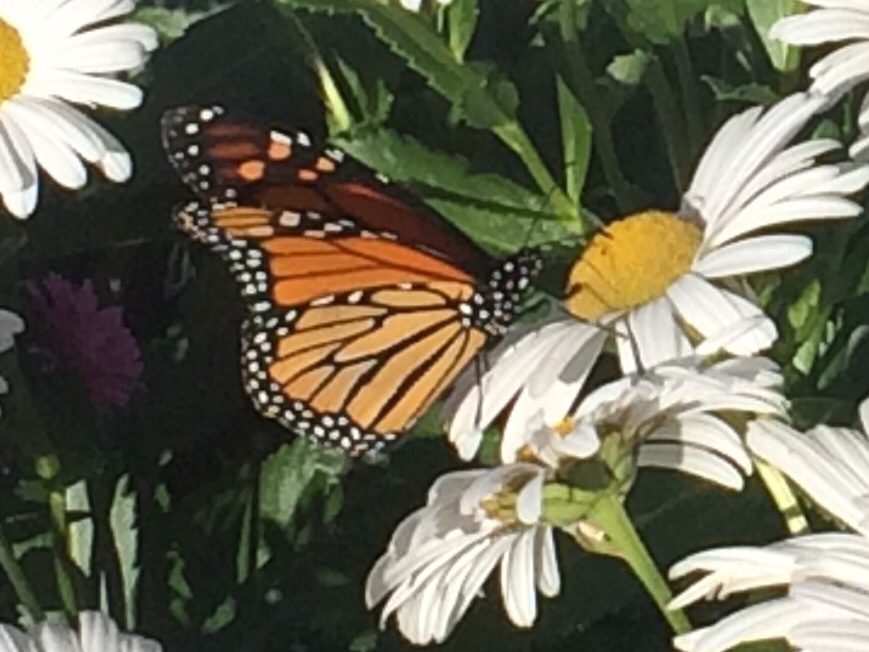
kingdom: Animalia
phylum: Arthropoda
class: Insecta
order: Lepidoptera
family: Nymphalidae
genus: Danaus
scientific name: Danaus plexippus
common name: Monarch
